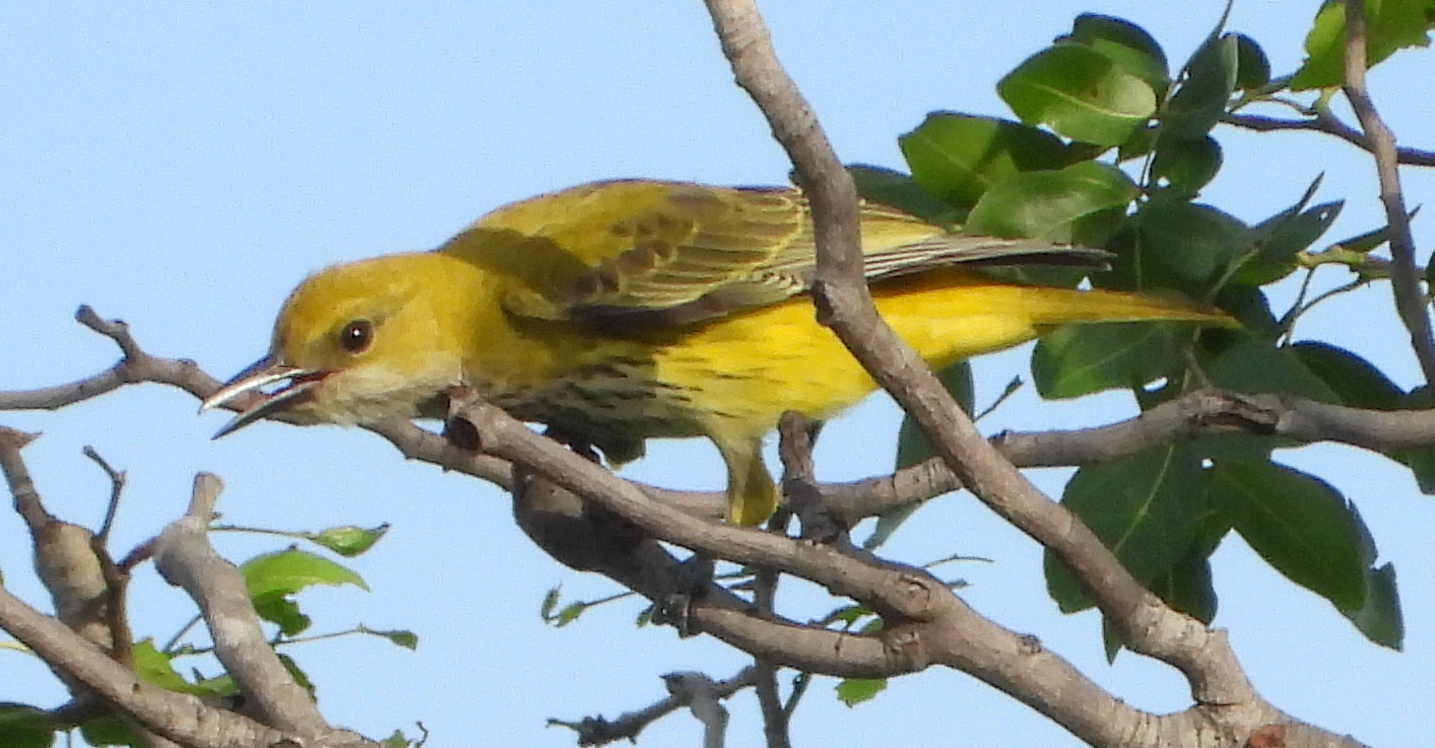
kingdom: Animalia
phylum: Chordata
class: Aves
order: Passeriformes
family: Oriolidae
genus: Oriolus
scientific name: Oriolus auratus
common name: African golden oriole
